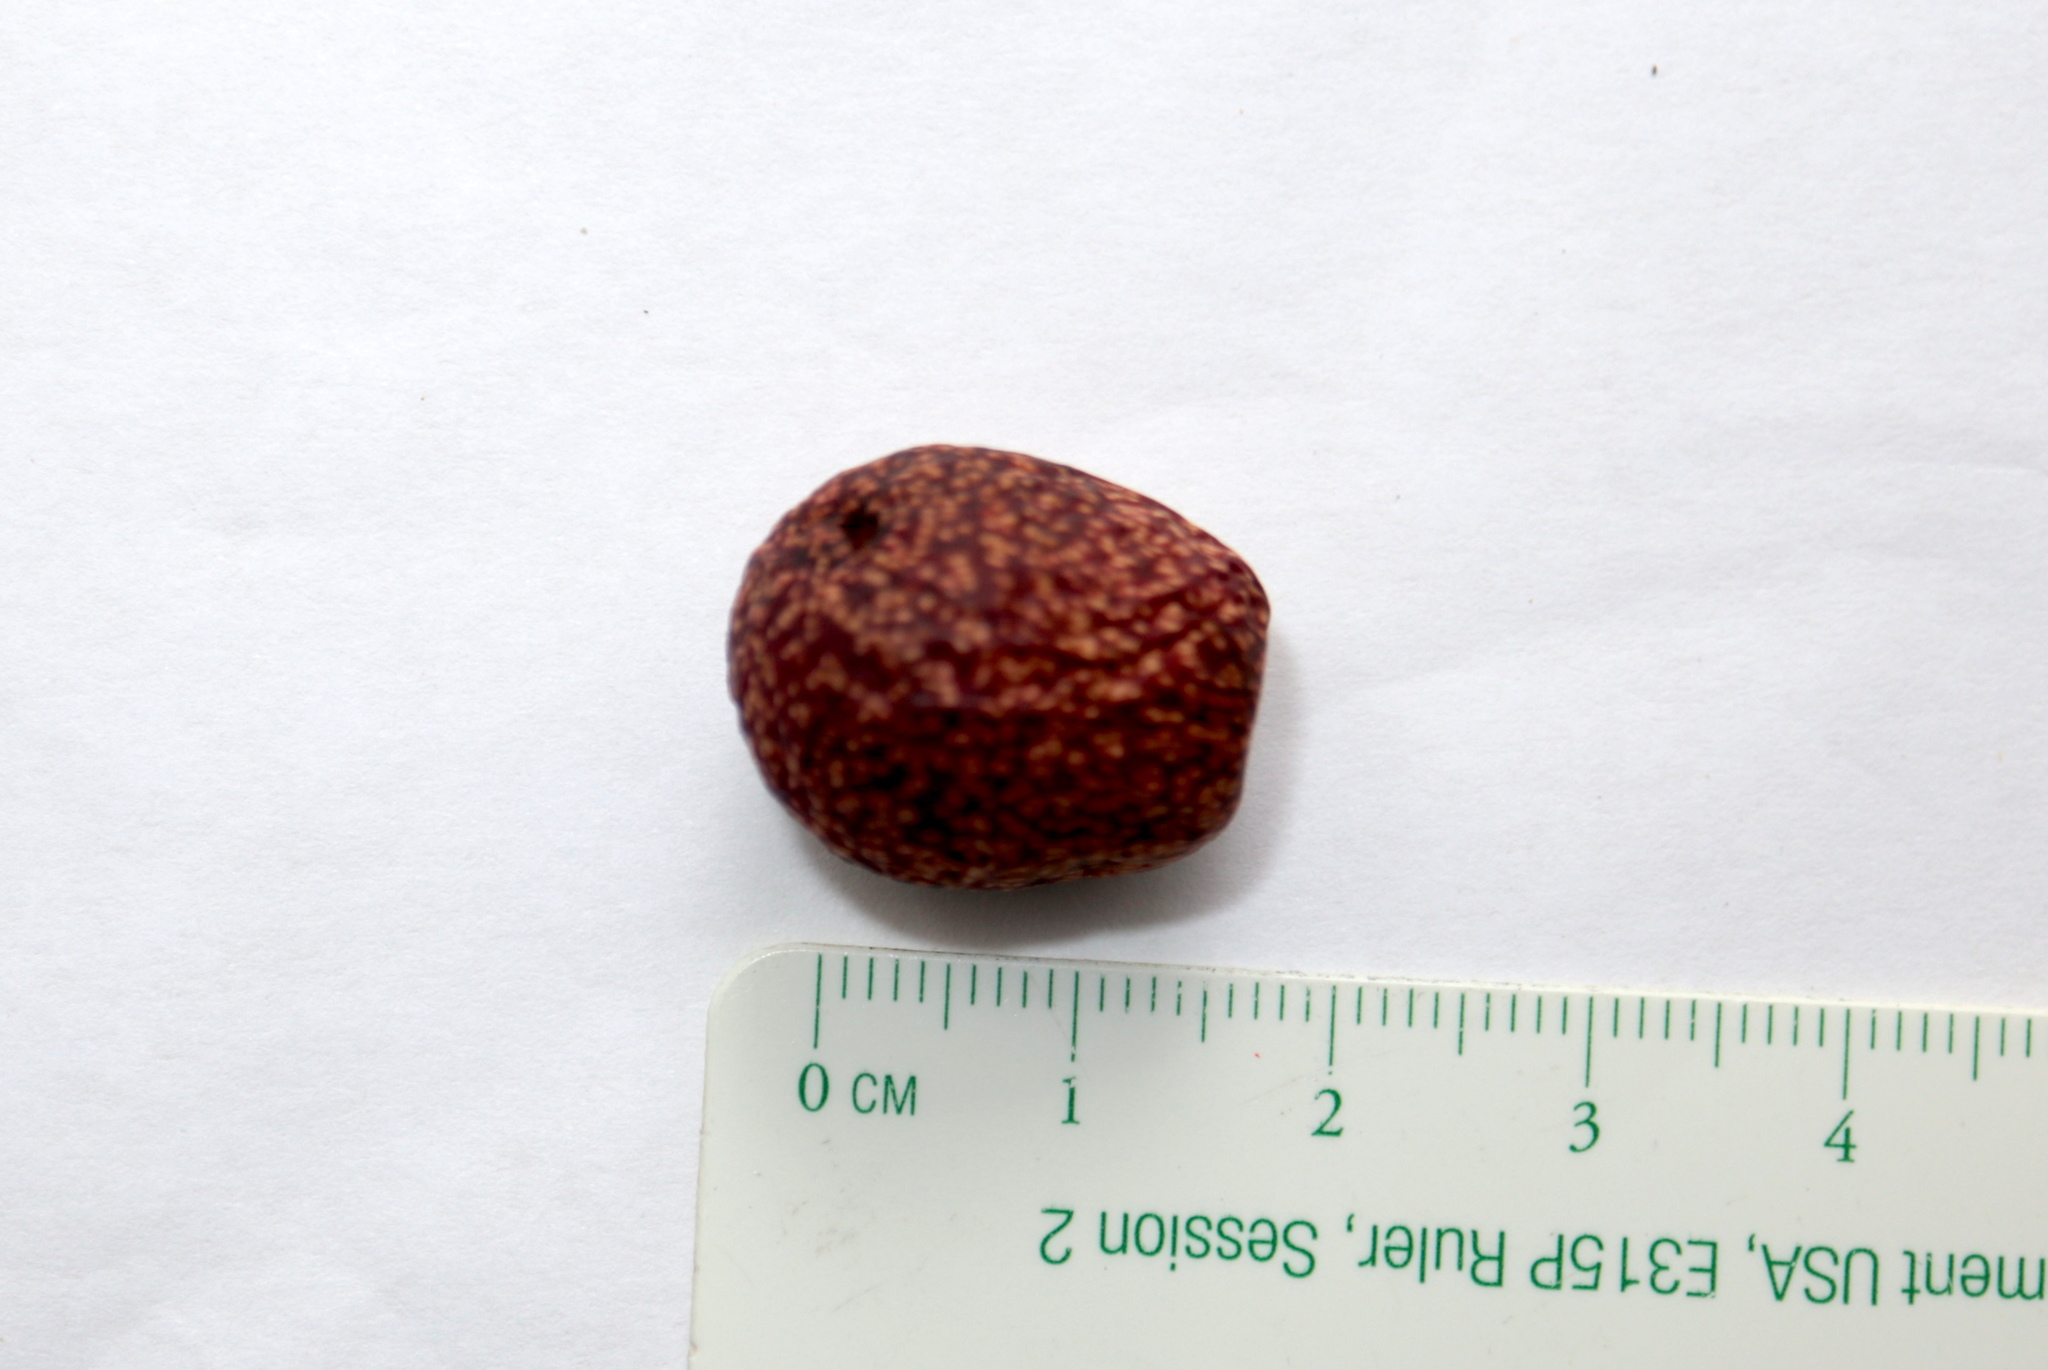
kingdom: Animalia
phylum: Arthropoda
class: Insecta
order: Hymenoptera
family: Cynipidae
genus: Amphibolips
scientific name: Amphibolips
